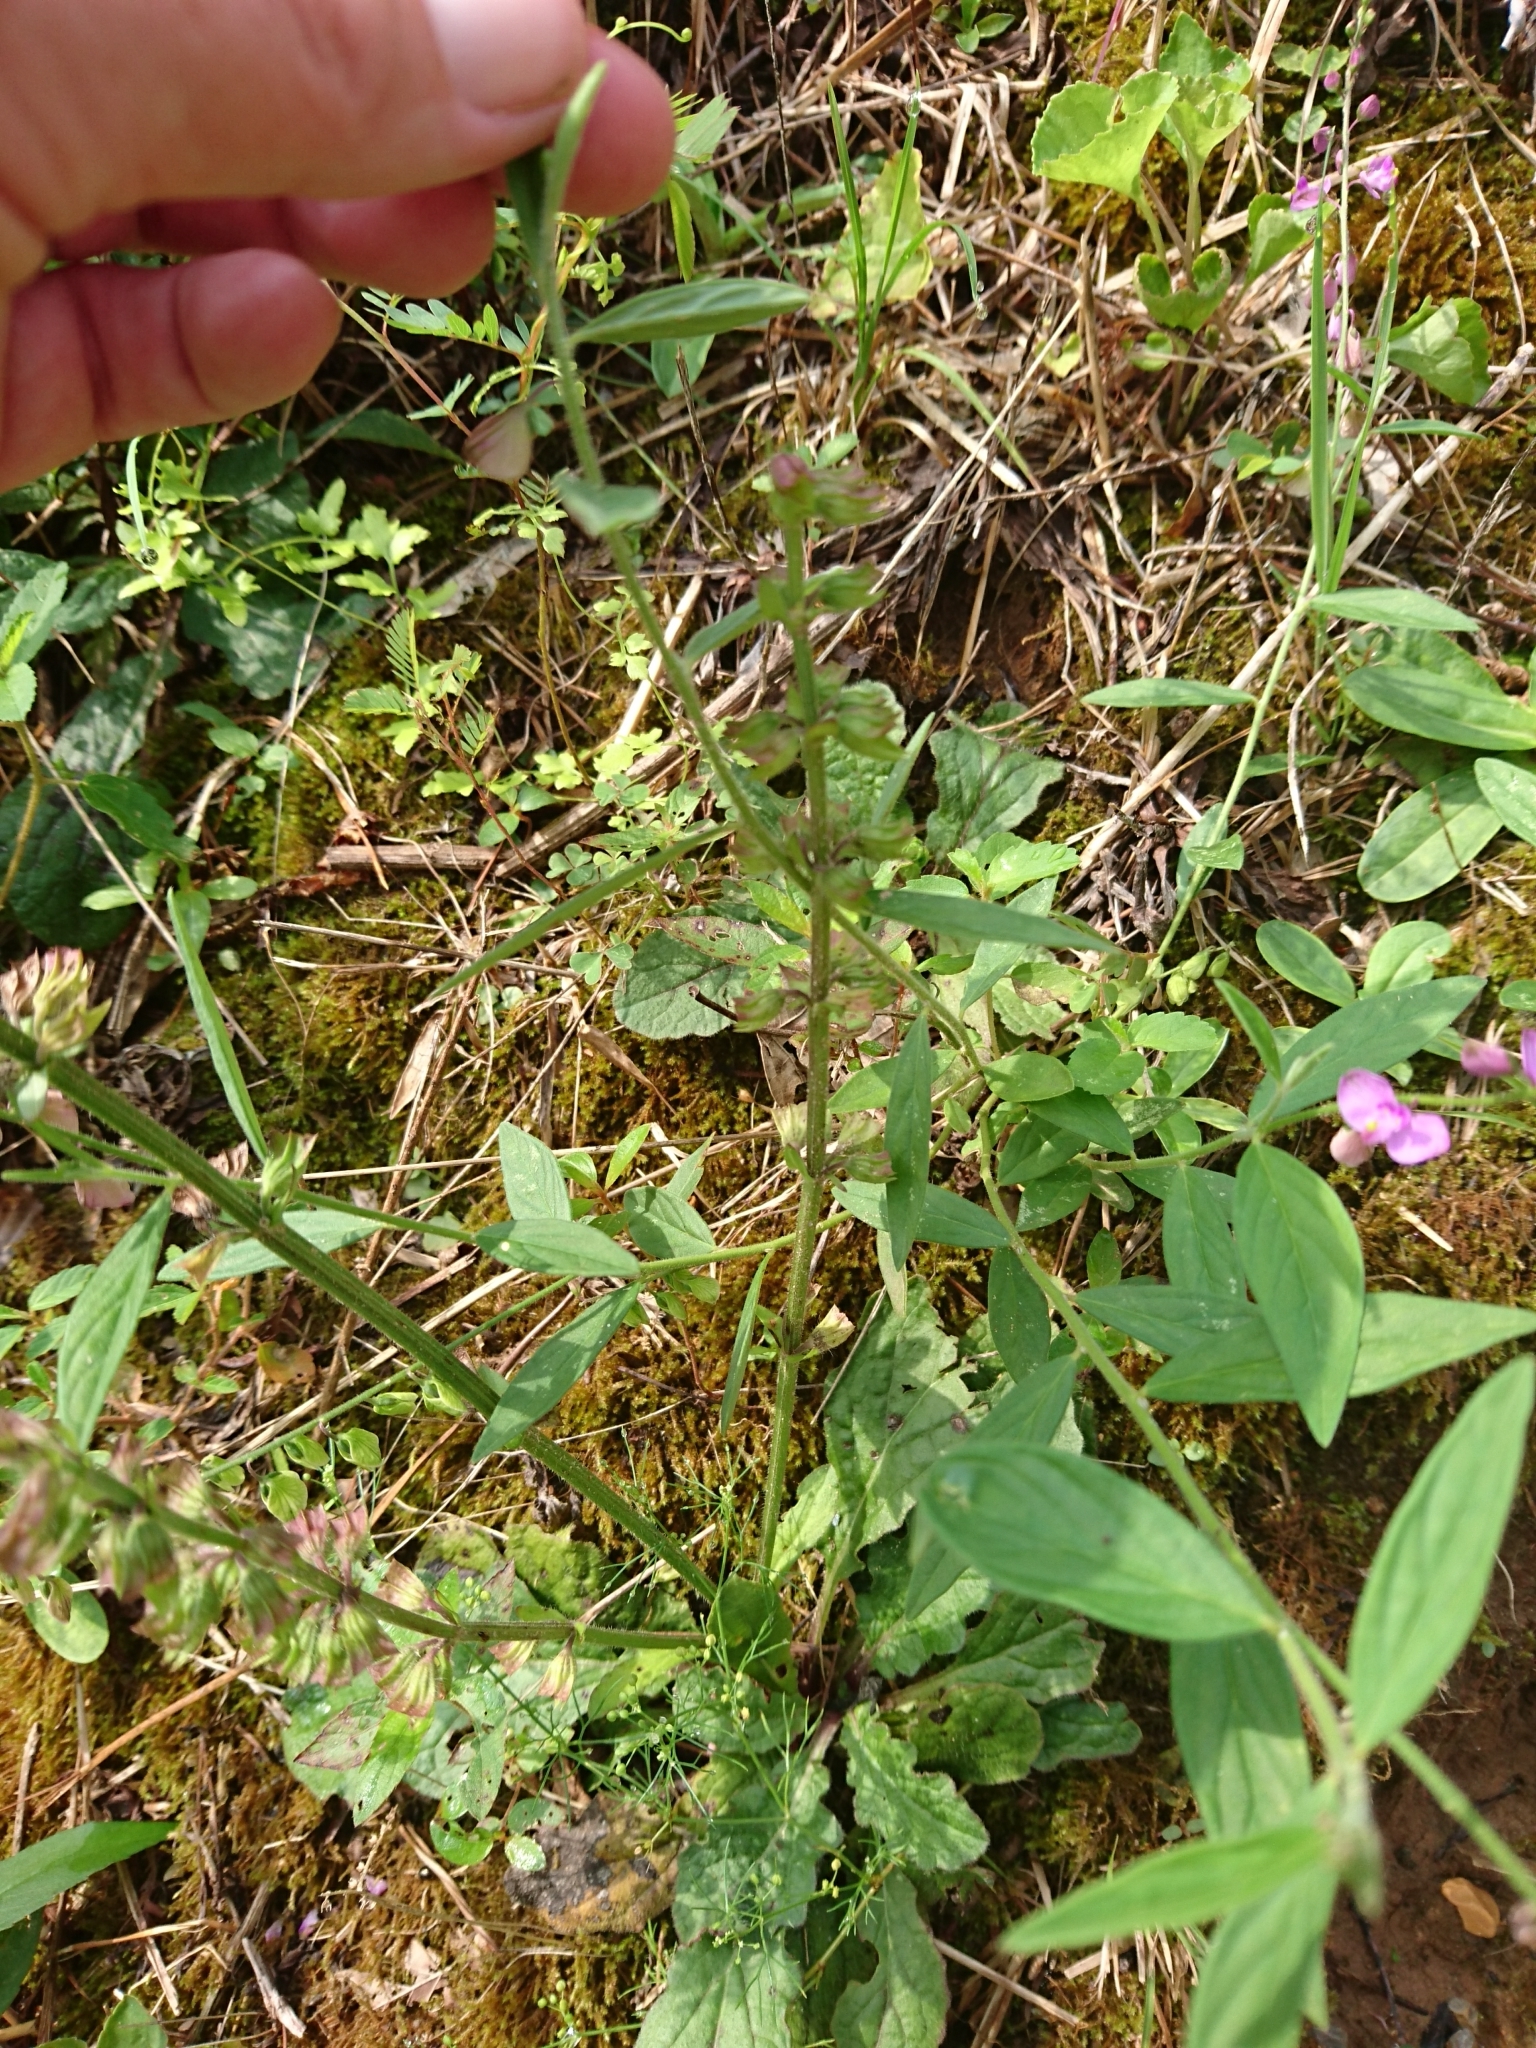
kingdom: Plantae
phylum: Tracheophyta
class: Magnoliopsida
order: Fabales
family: Polygalaceae
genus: Asemeia
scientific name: Asemeia grandiflora
